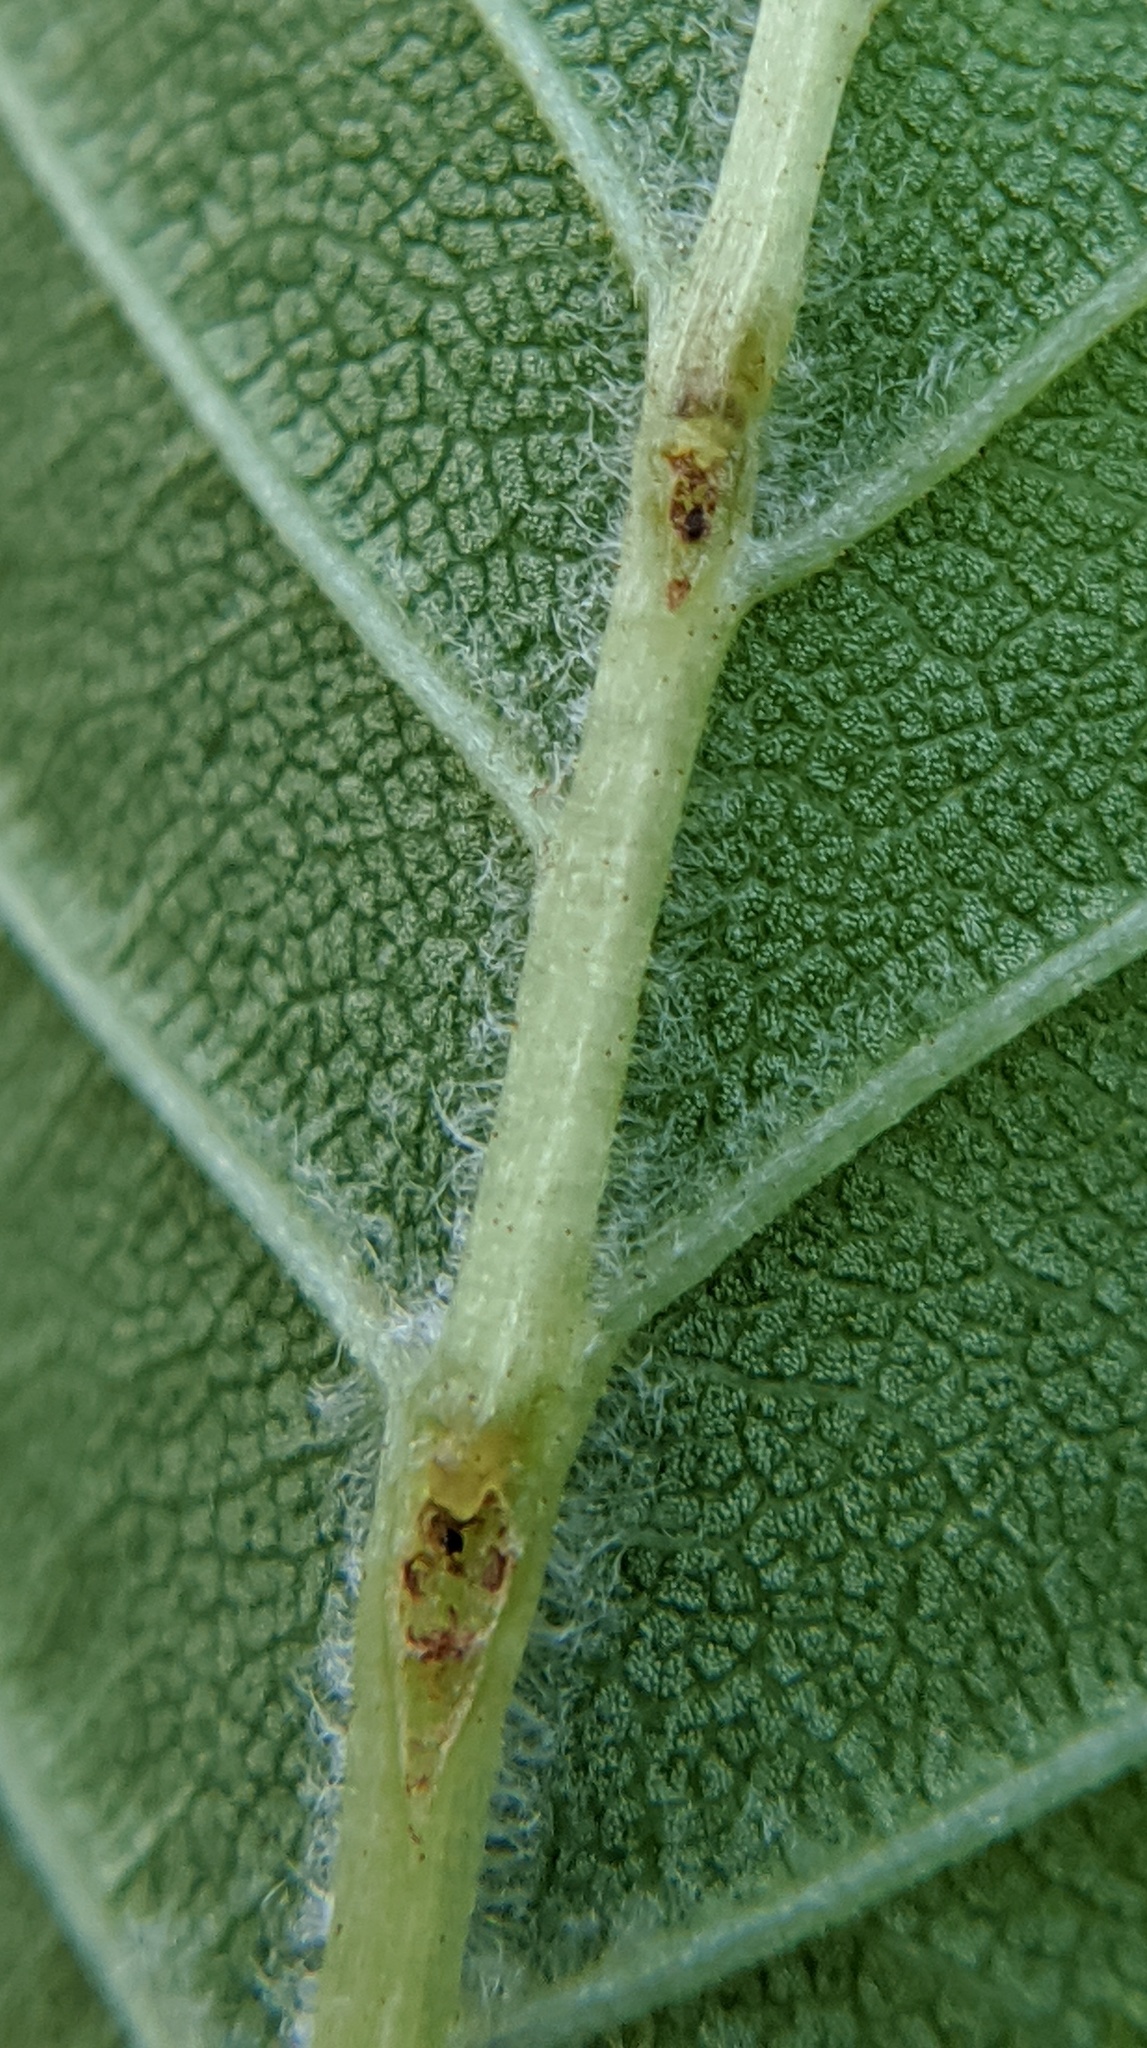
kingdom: Animalia
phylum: Arthropoda
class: Insecta
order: Coleoptera
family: Curculionidae
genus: Orchestes
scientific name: Orchestes steppensis
